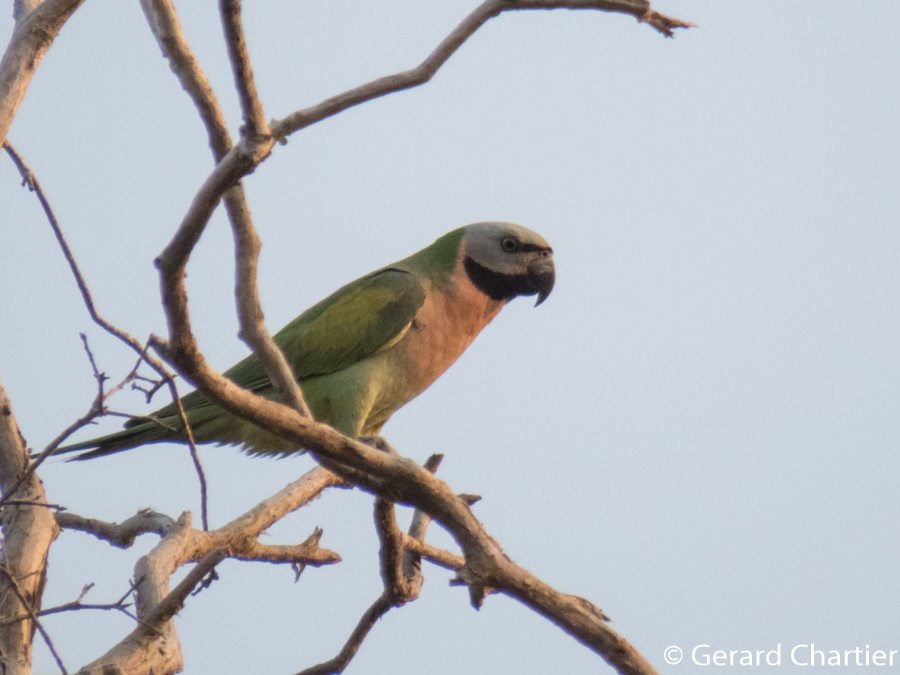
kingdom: Animalia
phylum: Chordata
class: Aves
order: Psittaciformes
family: Psittacidae
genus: Psittacula
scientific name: Psittacula alexandri
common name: Red-breasted parakeet
